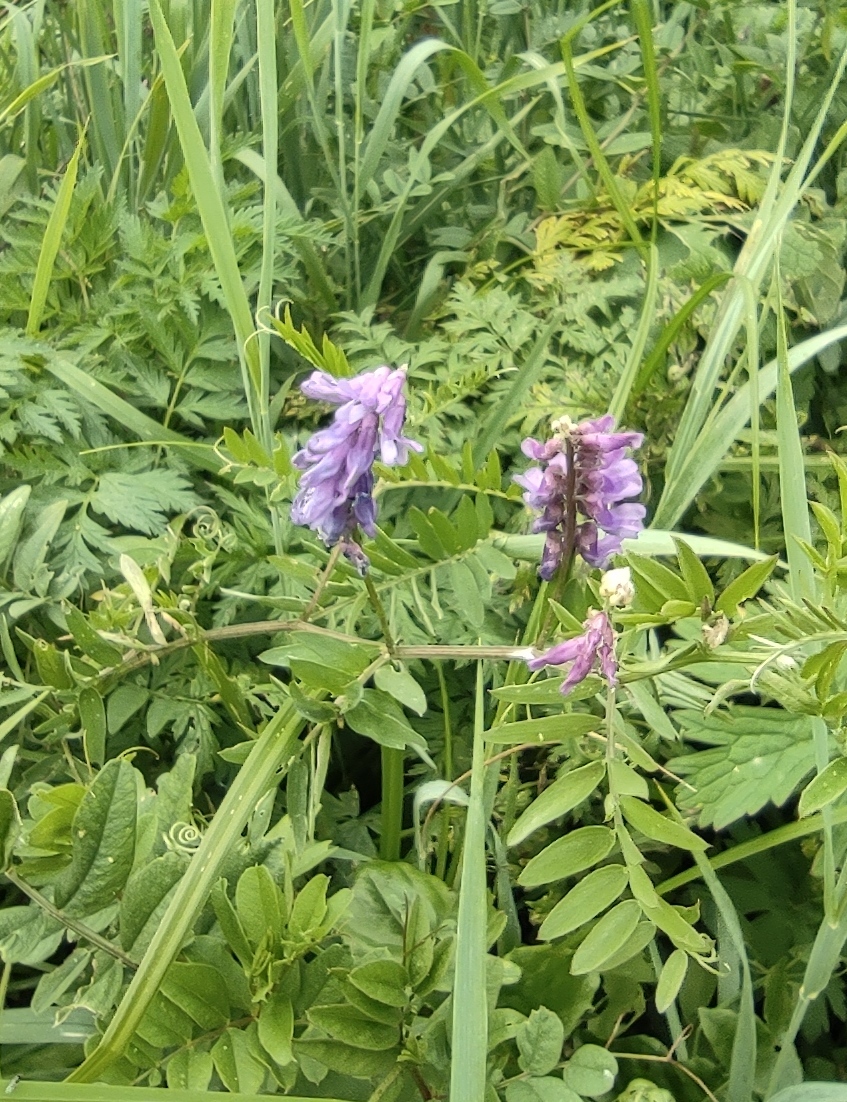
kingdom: Plantae
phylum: Tracheophyta
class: Magnoliopsida
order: Fabales
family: Fabaceae
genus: Vicia
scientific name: Vicia cracca
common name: Bird vetch
